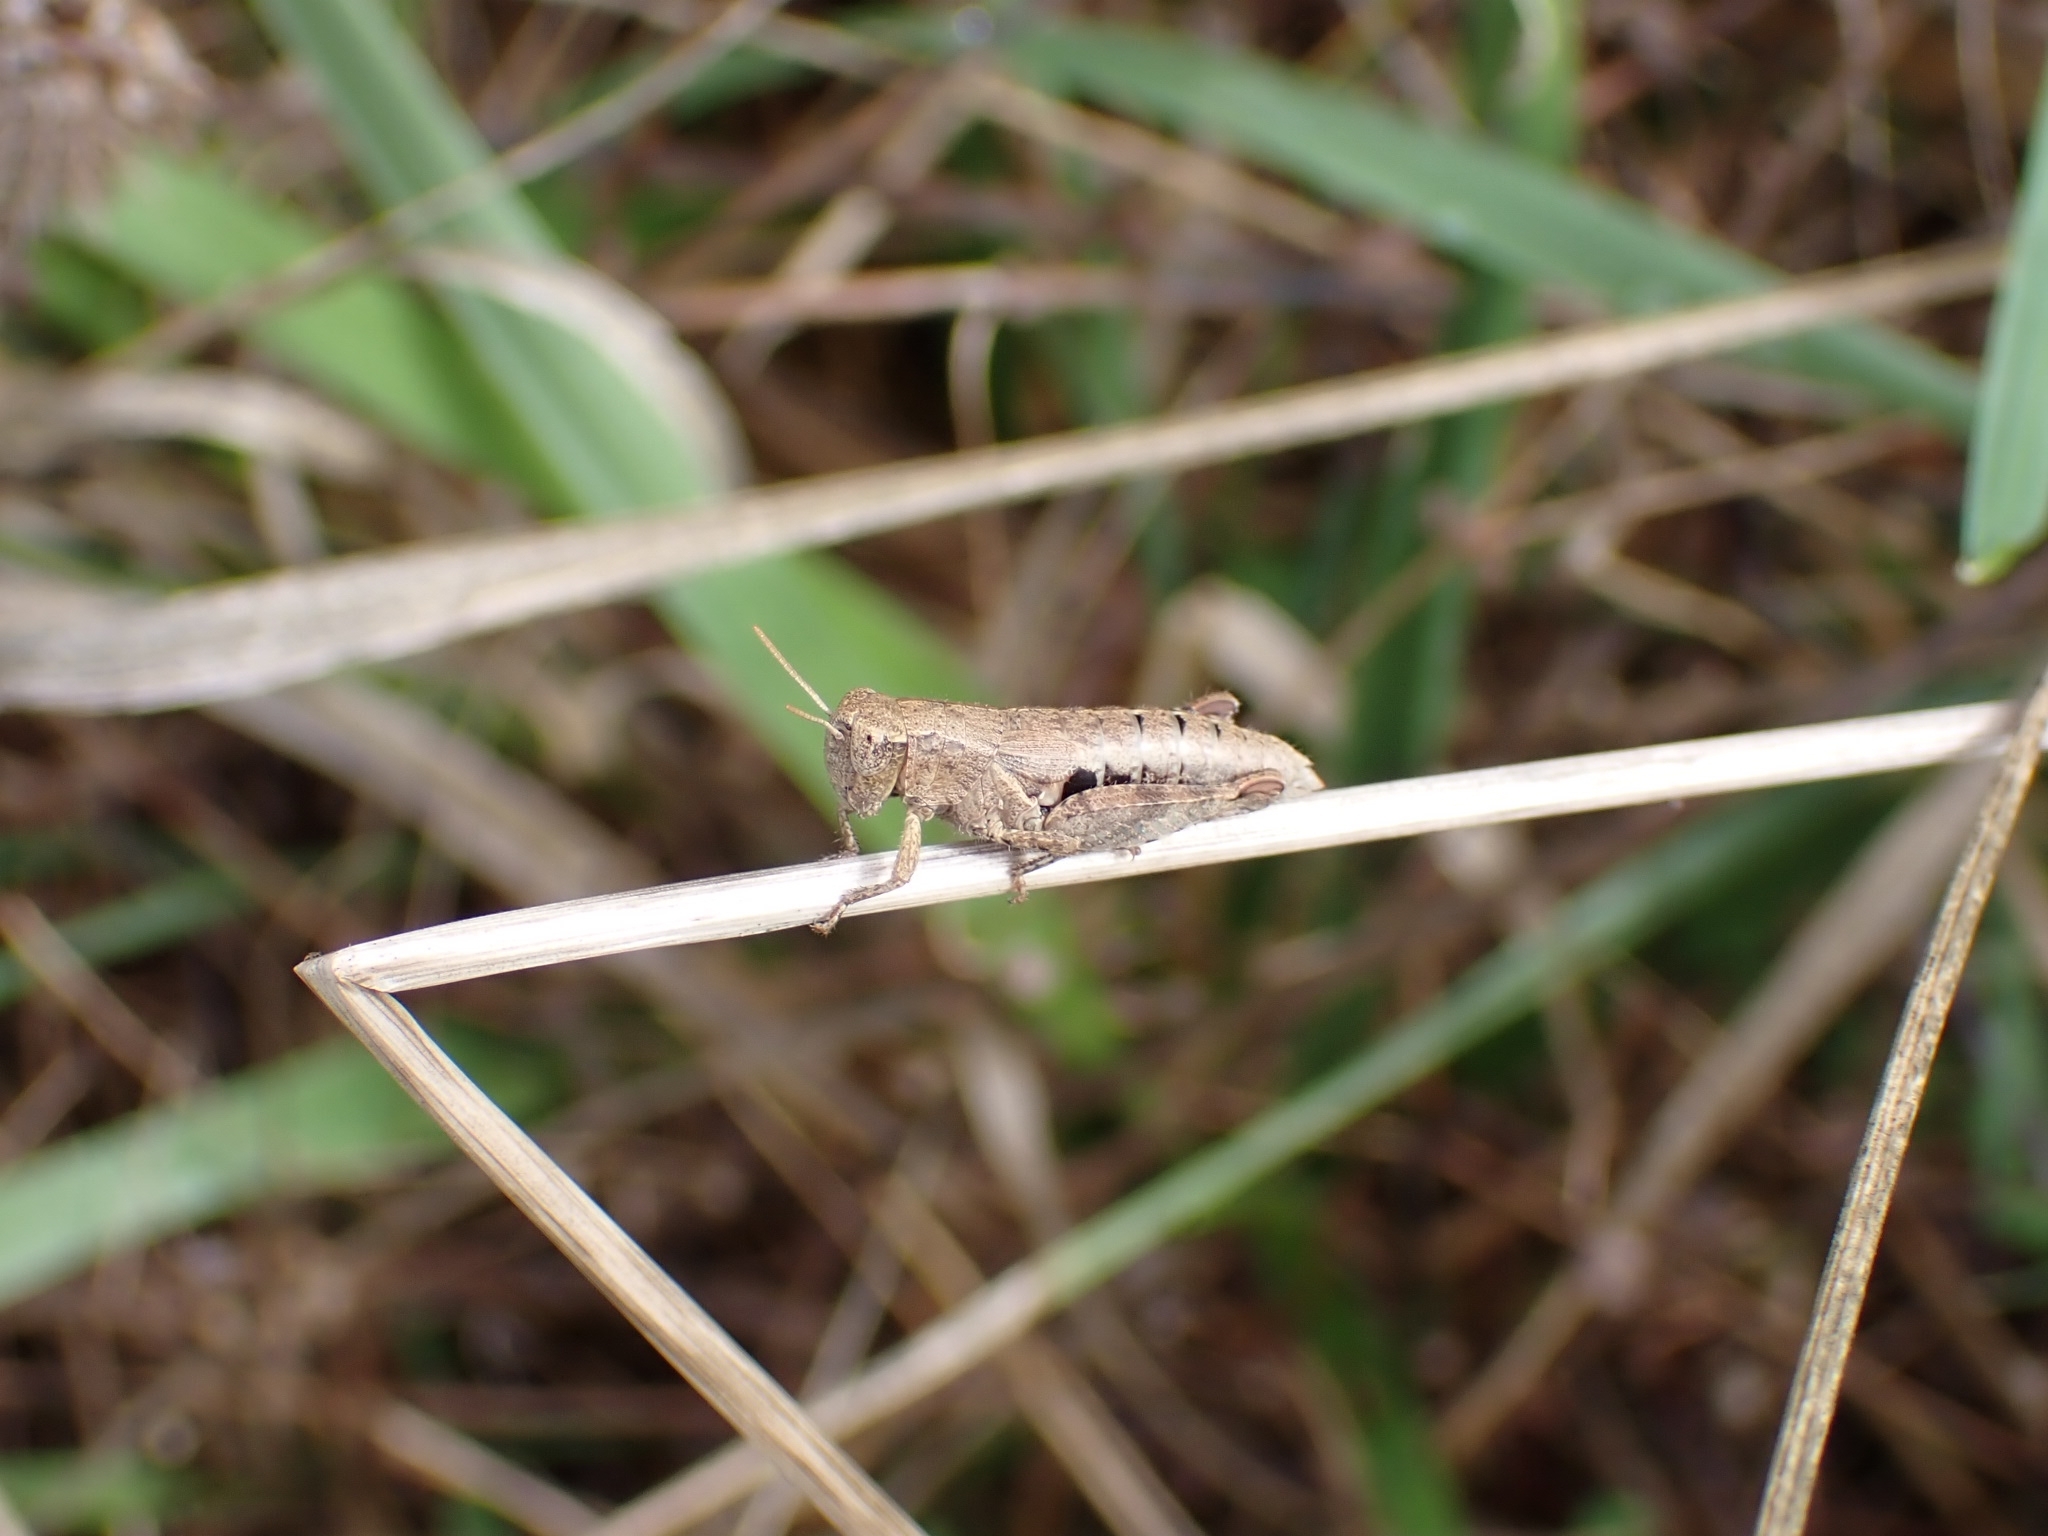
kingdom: Animalia
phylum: Arthropoda
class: Insecta
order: Orthoptera
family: Acrididae
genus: Pezotettix
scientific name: Pezotettix giornae
